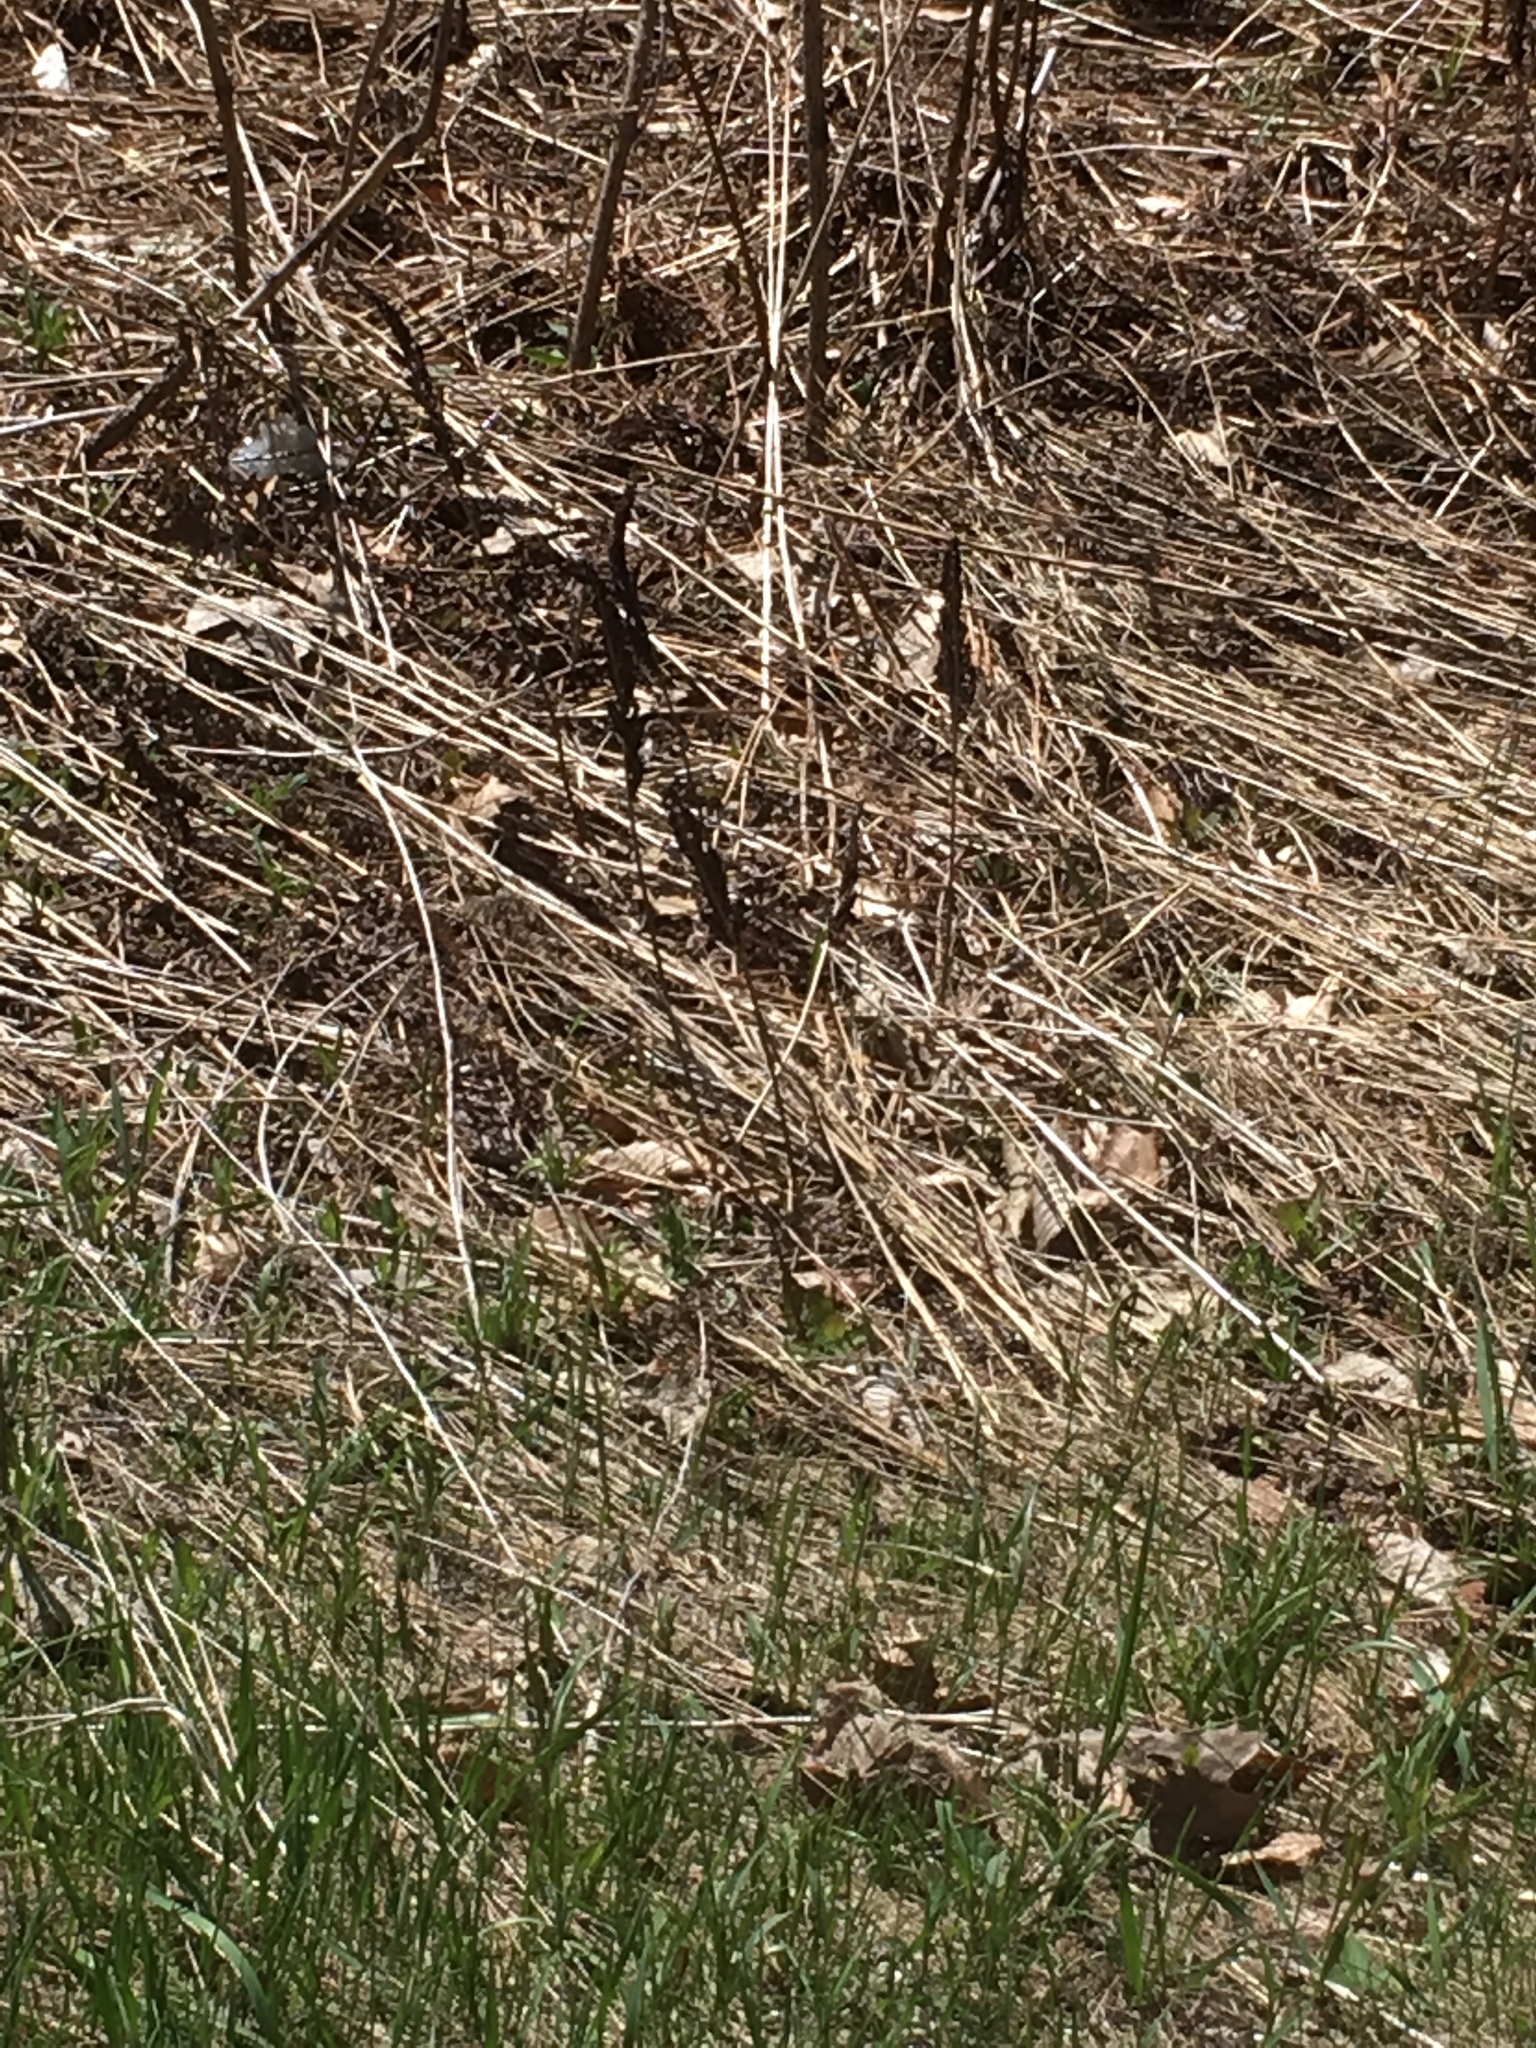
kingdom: Plantae
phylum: Tracheophyta
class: Polypodiopsida
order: Polypodiales
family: Onocleaceae
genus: Onoclea
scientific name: Onoclea sensibilis
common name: Sensitive fern
